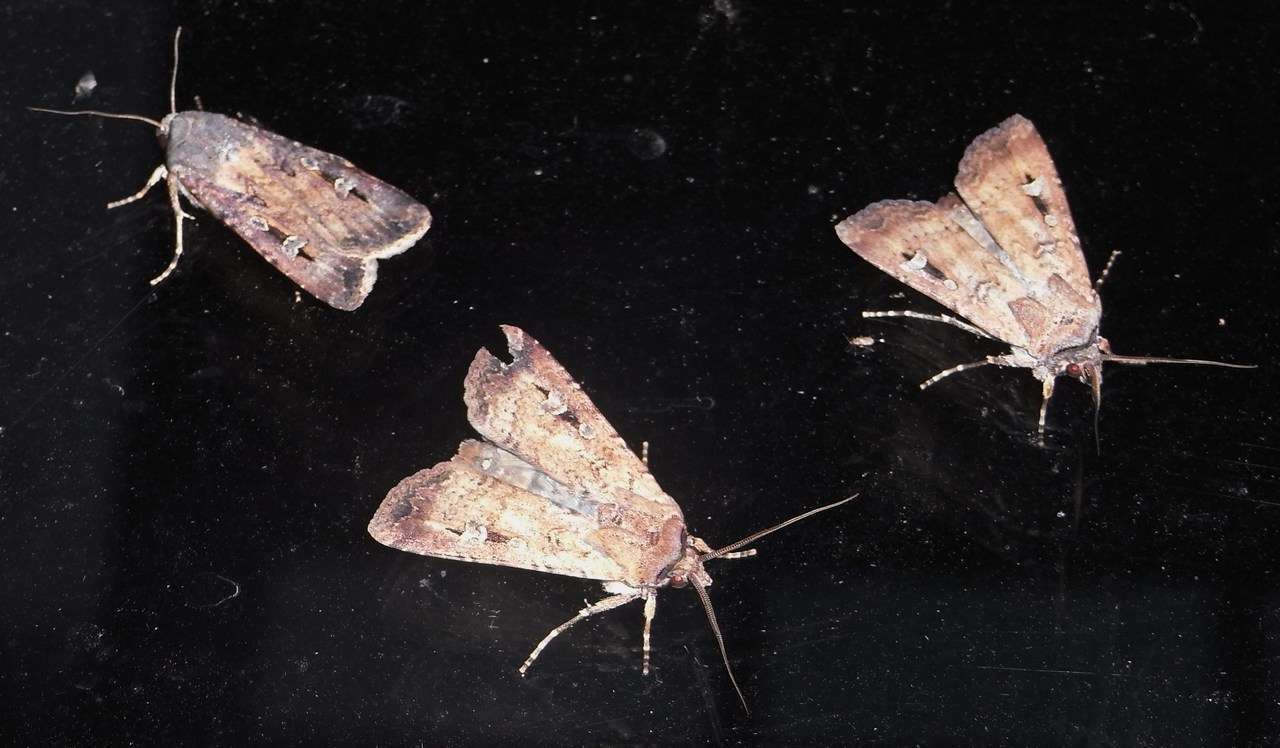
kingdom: Animalia
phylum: Arthropoda
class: Insecta
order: Lepidoptera
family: Noctuidae
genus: Agrotis
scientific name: Agrotis infusa
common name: Bogong moth
